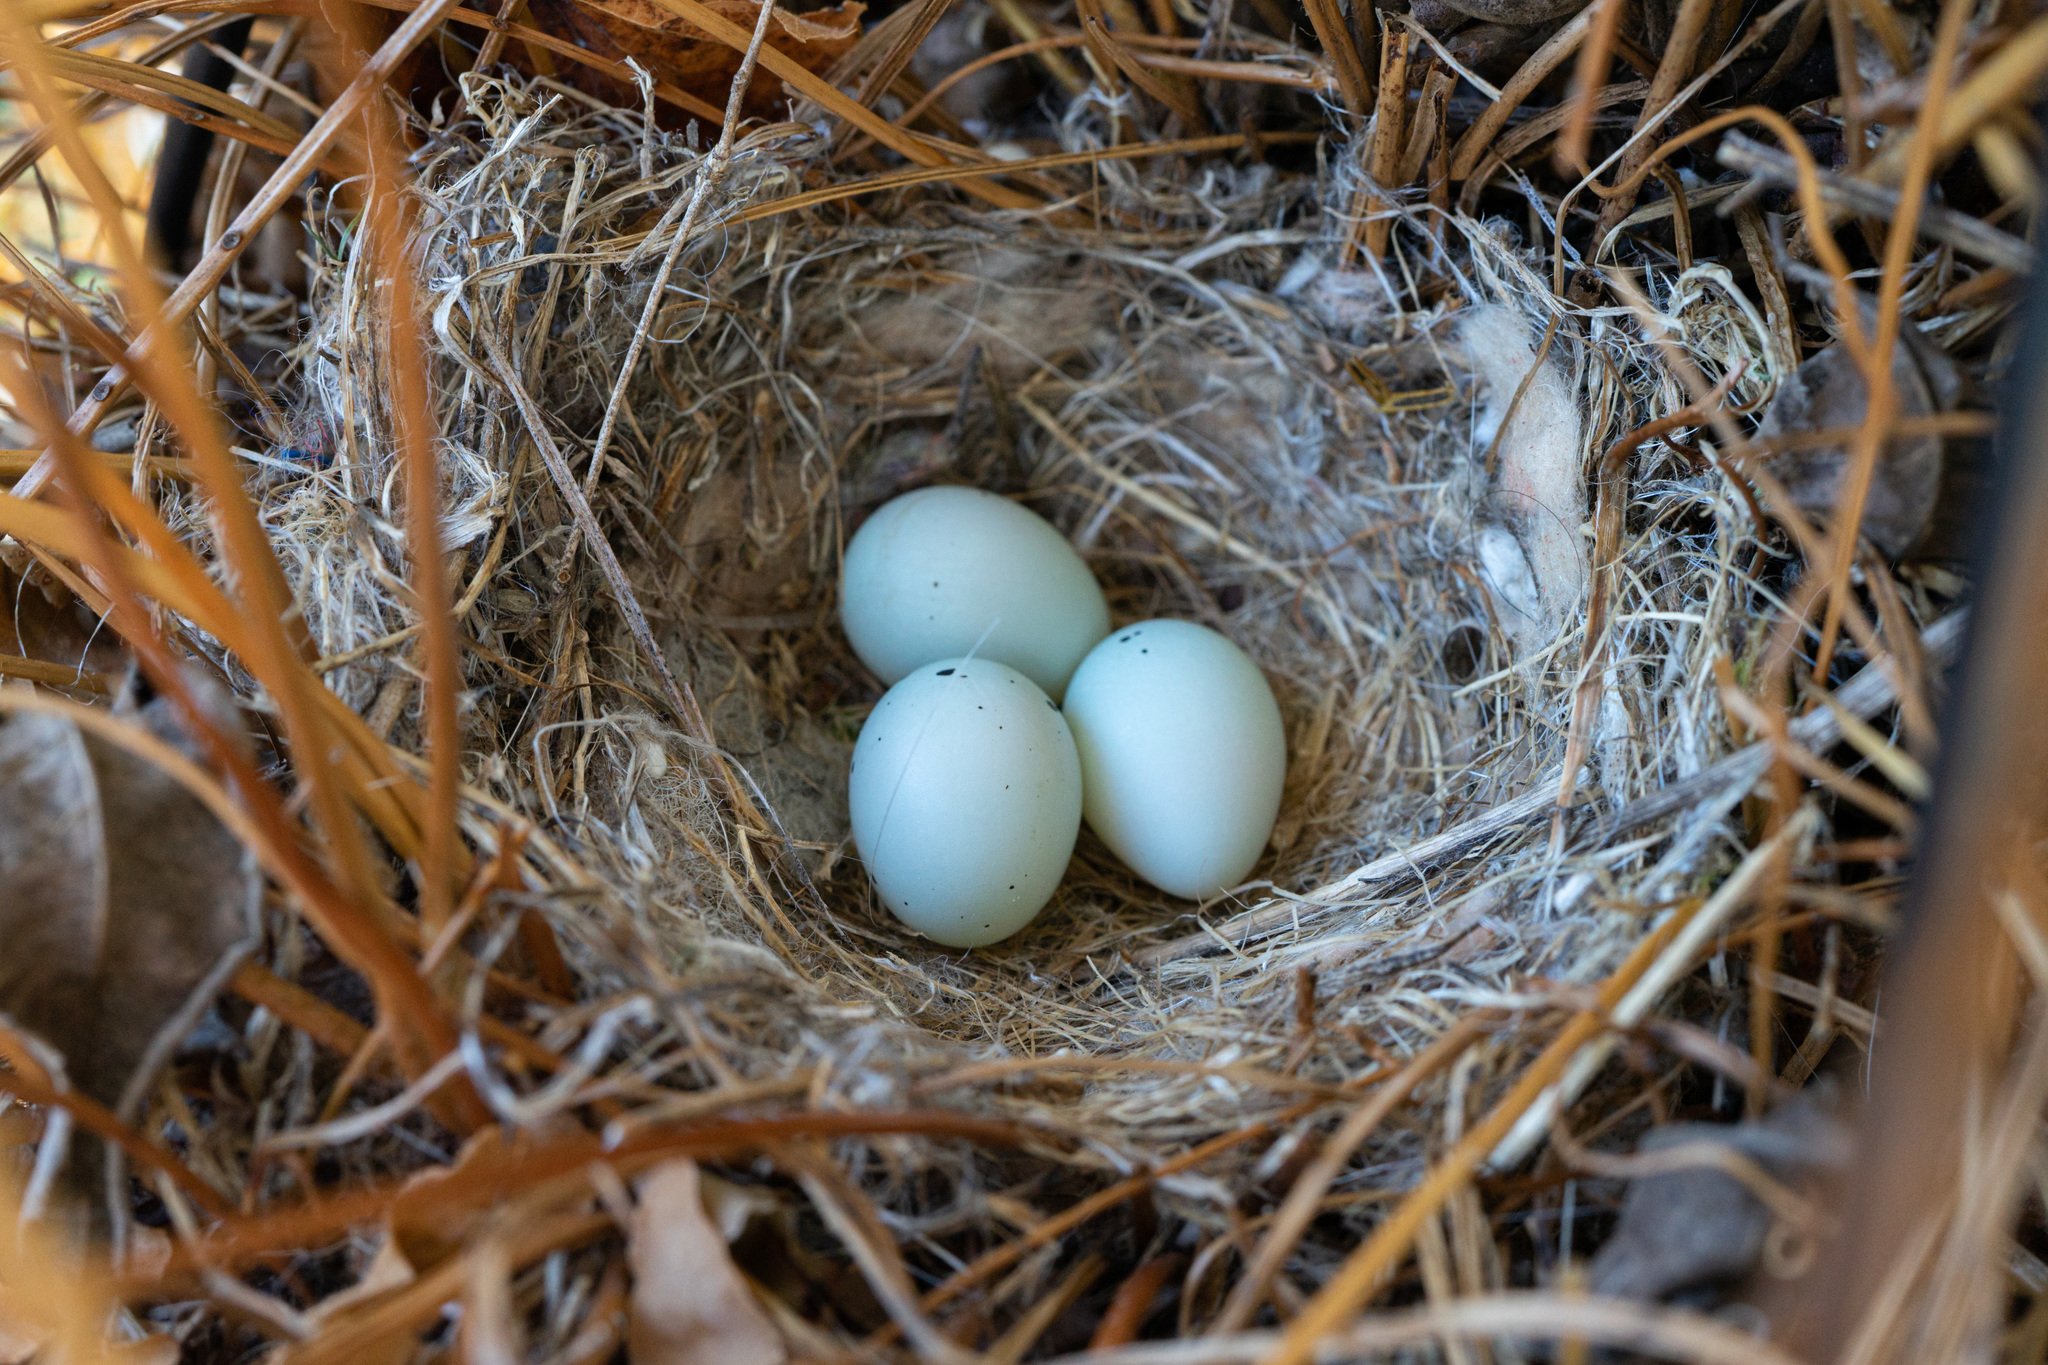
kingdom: Animalia
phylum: Chordata
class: Aves
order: Passeriformes
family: Fringillidae
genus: Haemorhous
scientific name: Haemorhous mexicanus
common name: House finch
